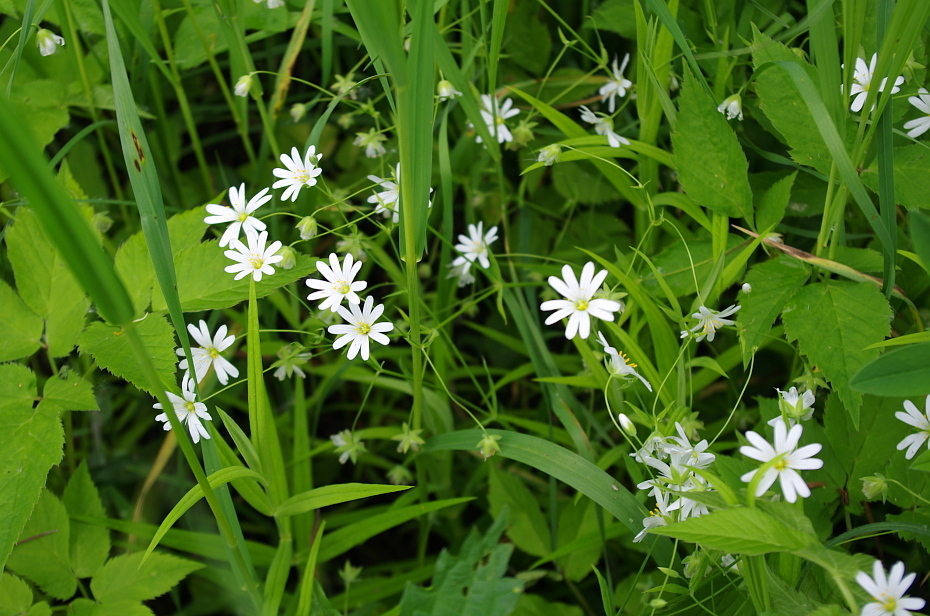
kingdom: Plantae
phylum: Tracheophyta
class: Magnoliopsida
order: Caryophyllales
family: Caryophyllaceae
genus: Rabelera
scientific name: Rabelera holostea
